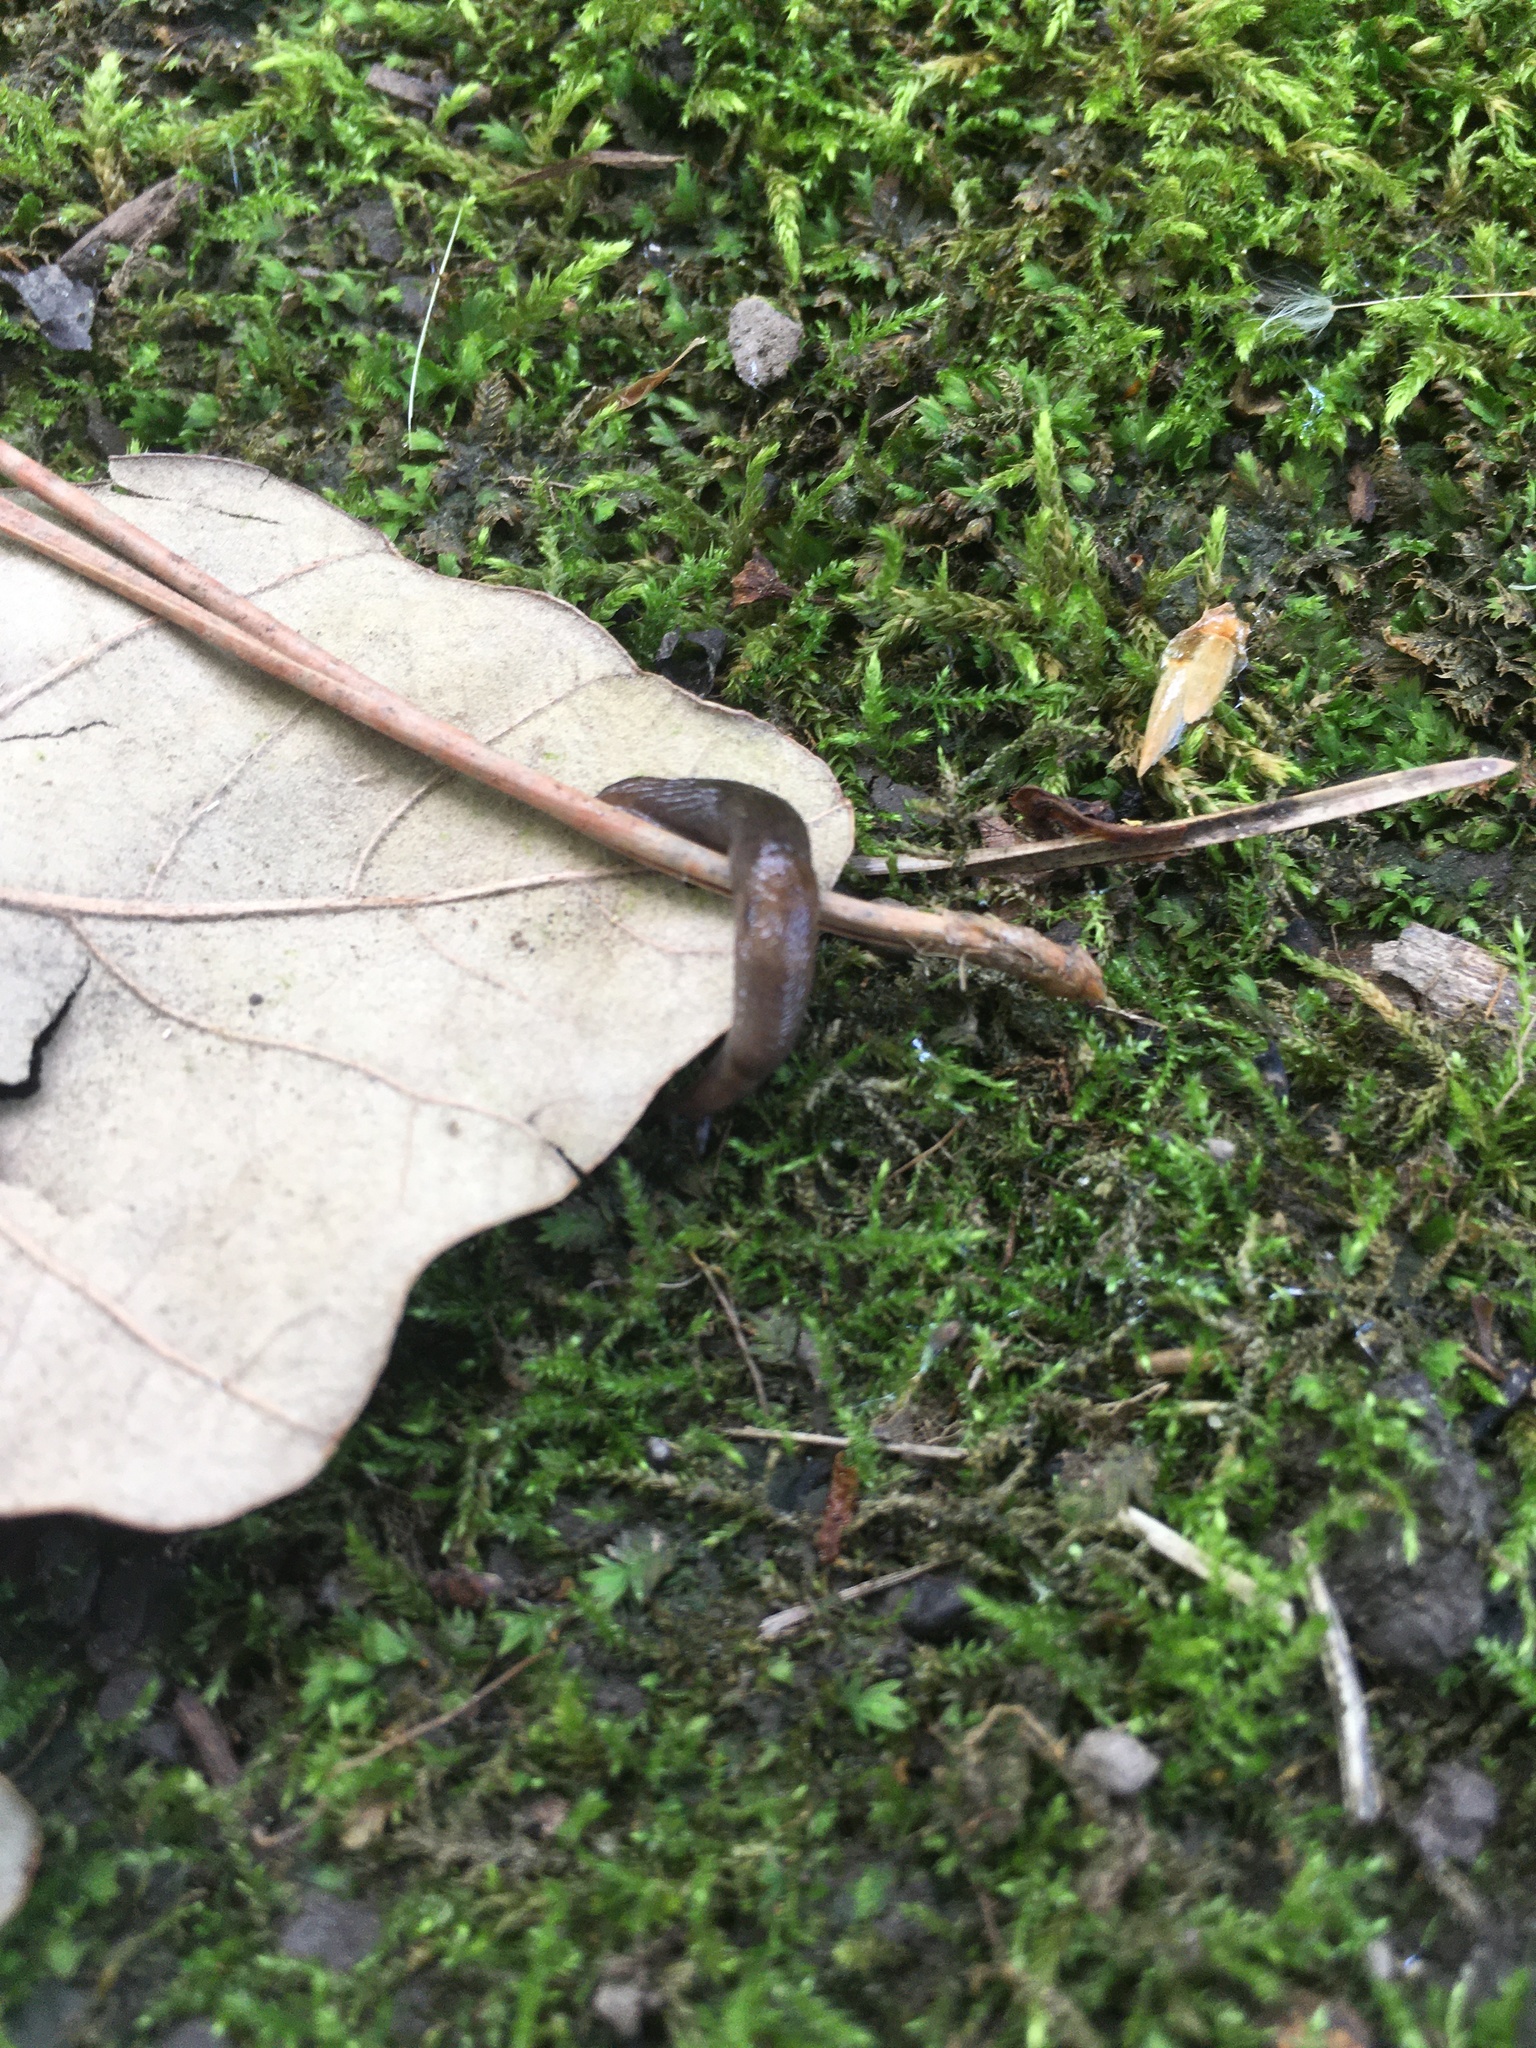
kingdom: Animalia
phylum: Mollusca
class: Gastropoda
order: Stylommatophora
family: Agriolimacidae
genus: Deroceras
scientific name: Deroceras laeve
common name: Marsh slug
